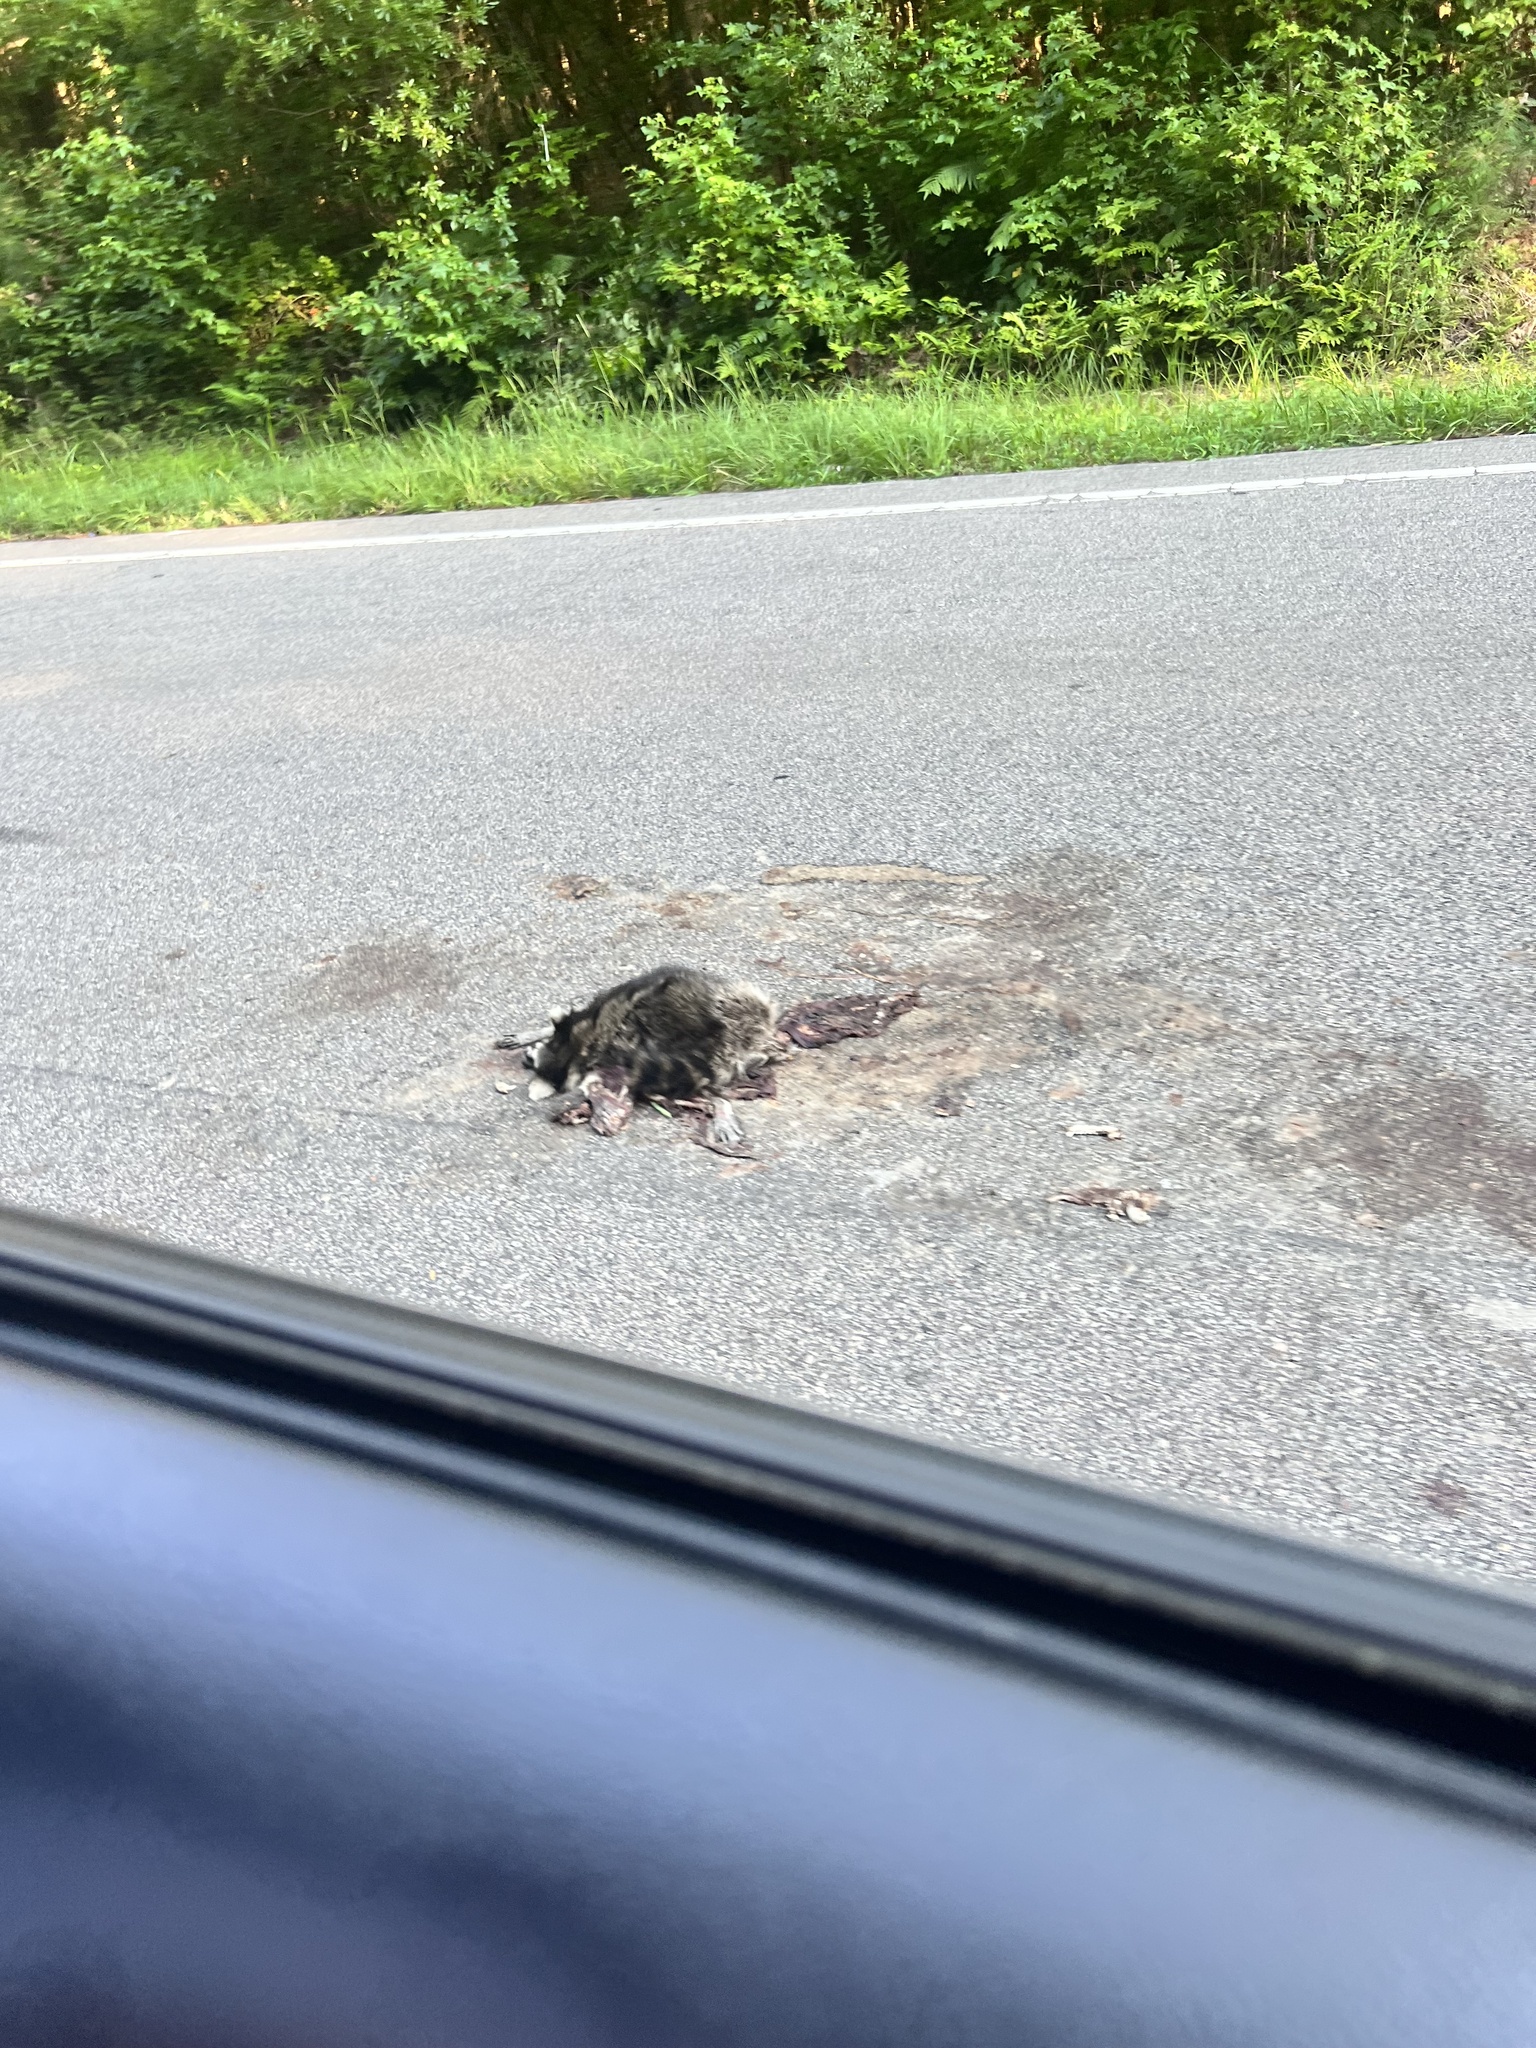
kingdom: Animalia
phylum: Chordata
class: Mammalia
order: Carnivora
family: Procyonidae
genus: Procyon
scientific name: Procyon lotor
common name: Raccoon
